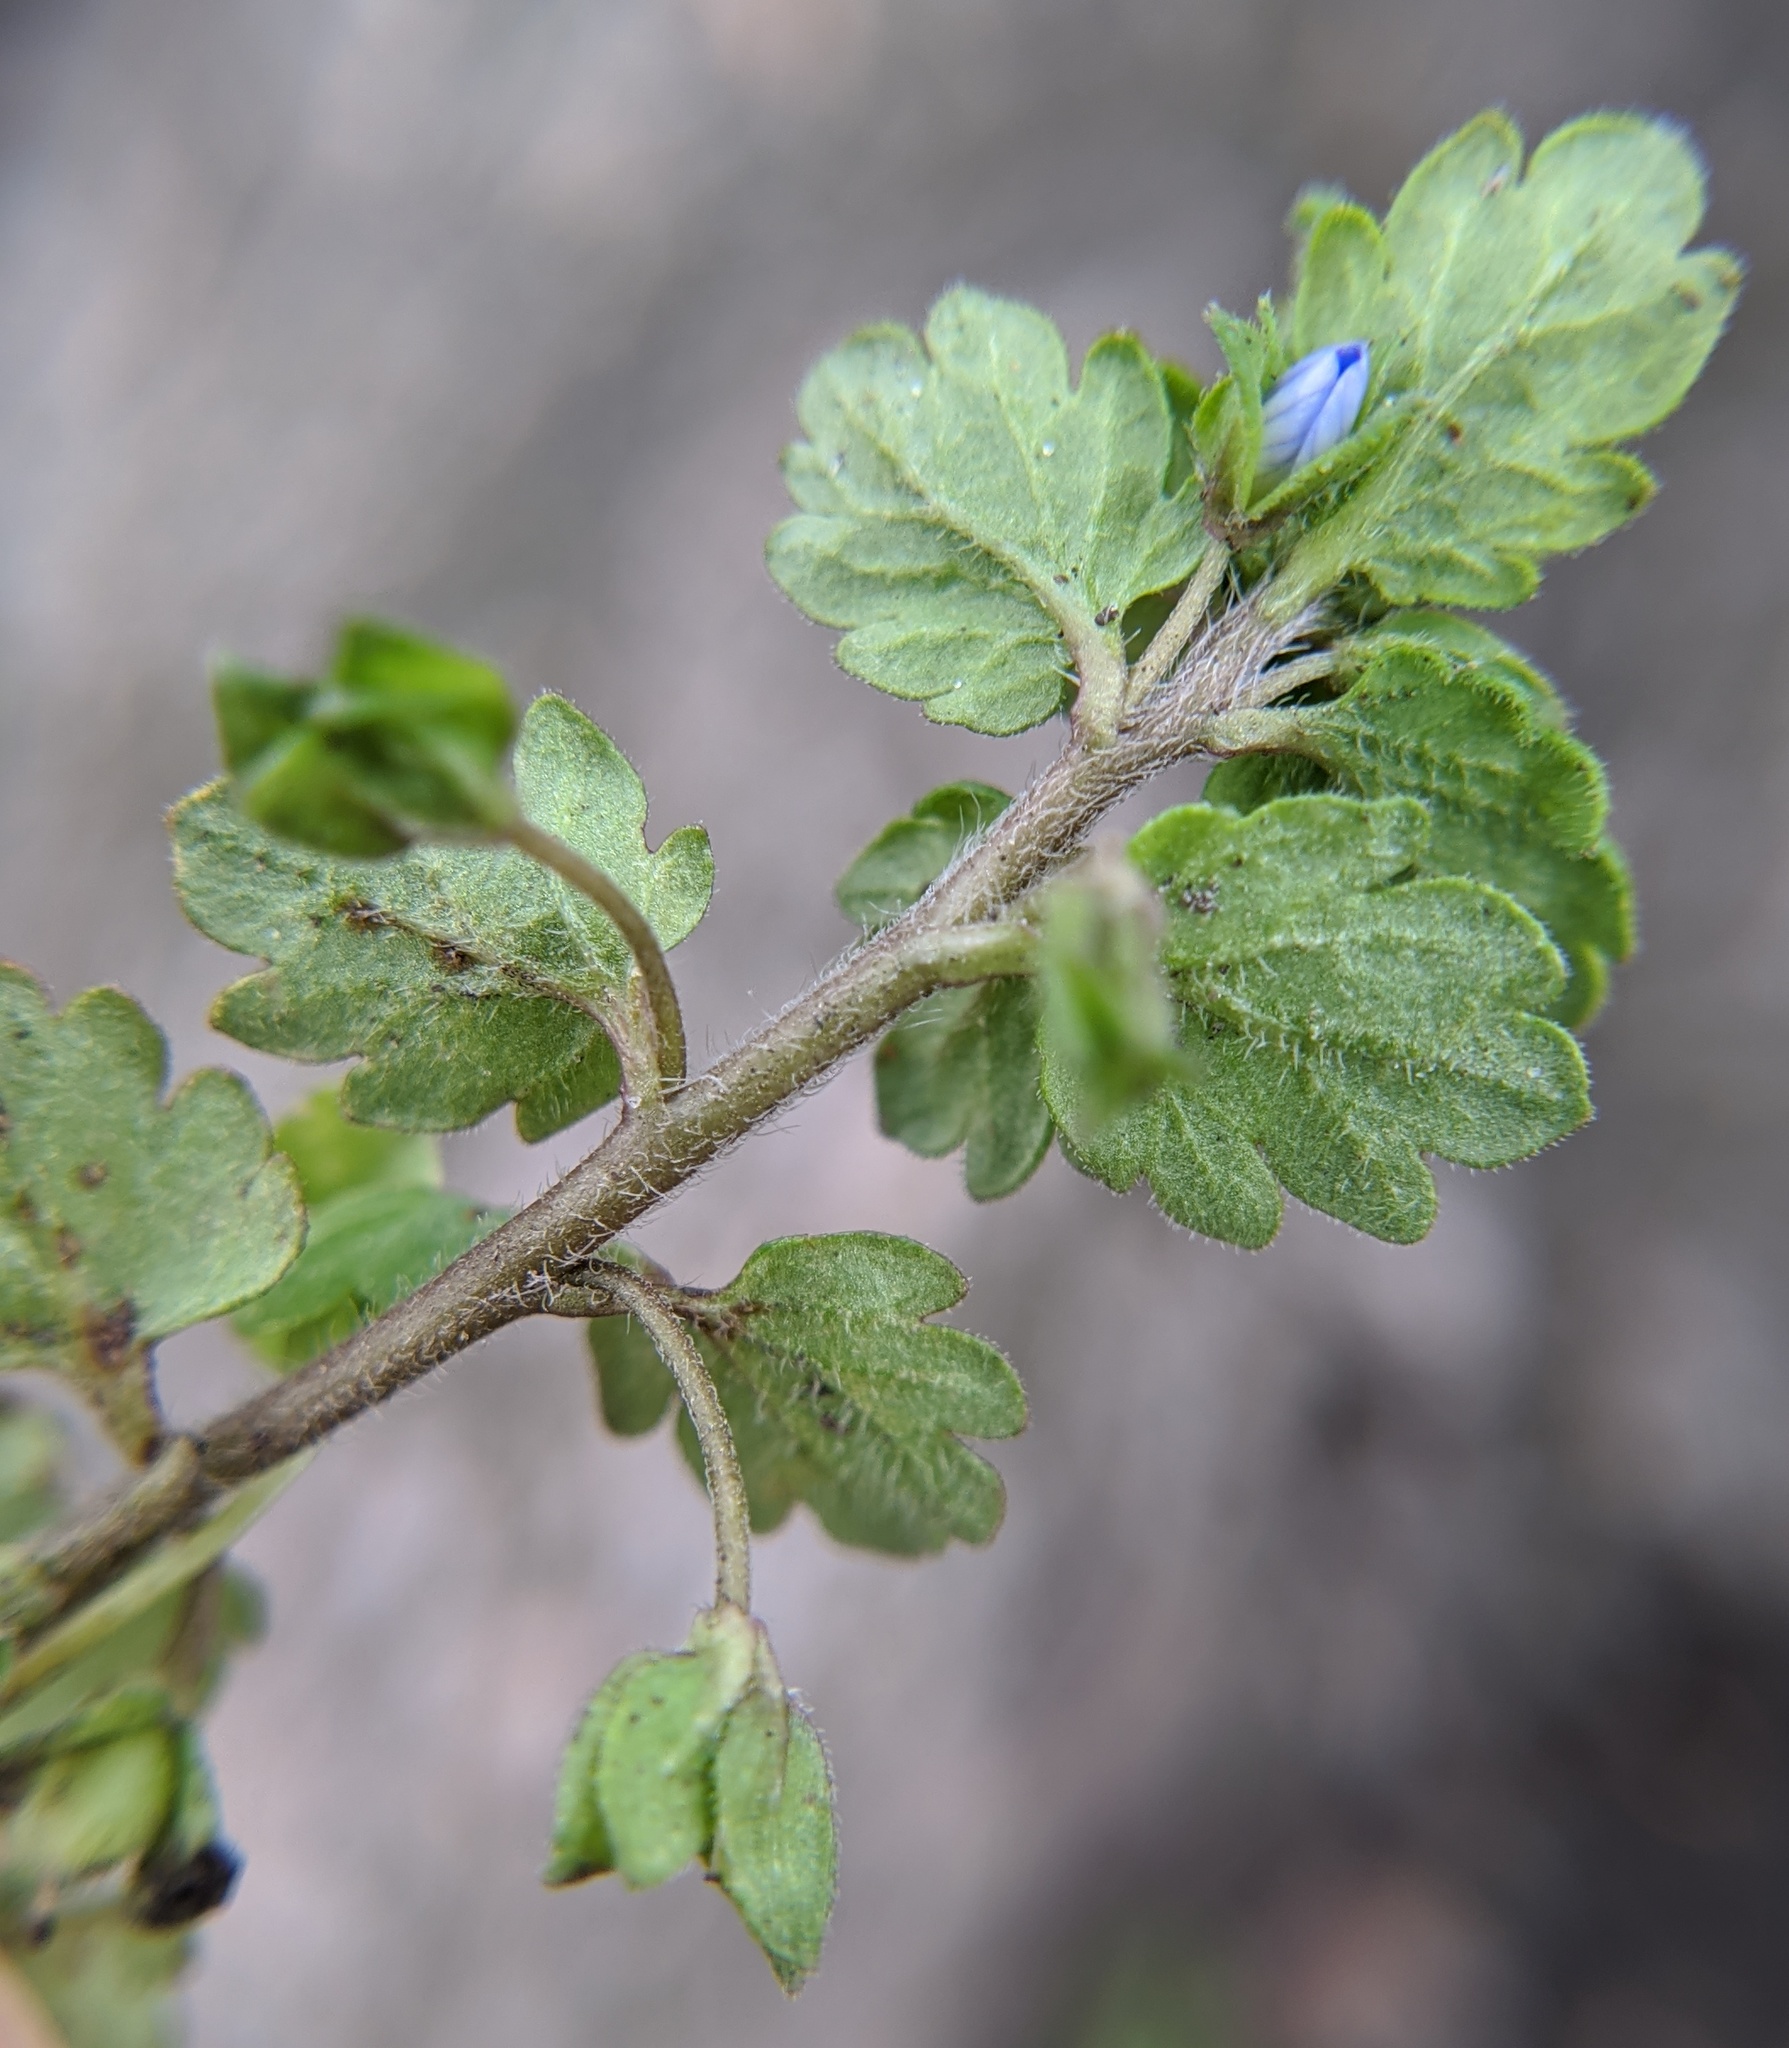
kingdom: Plantae
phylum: Tracheophyta
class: Magnoliopsida
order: Lamiales
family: Plantaginaceae
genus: Veronica
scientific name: Veronica polita
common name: Grey field-speedwell
